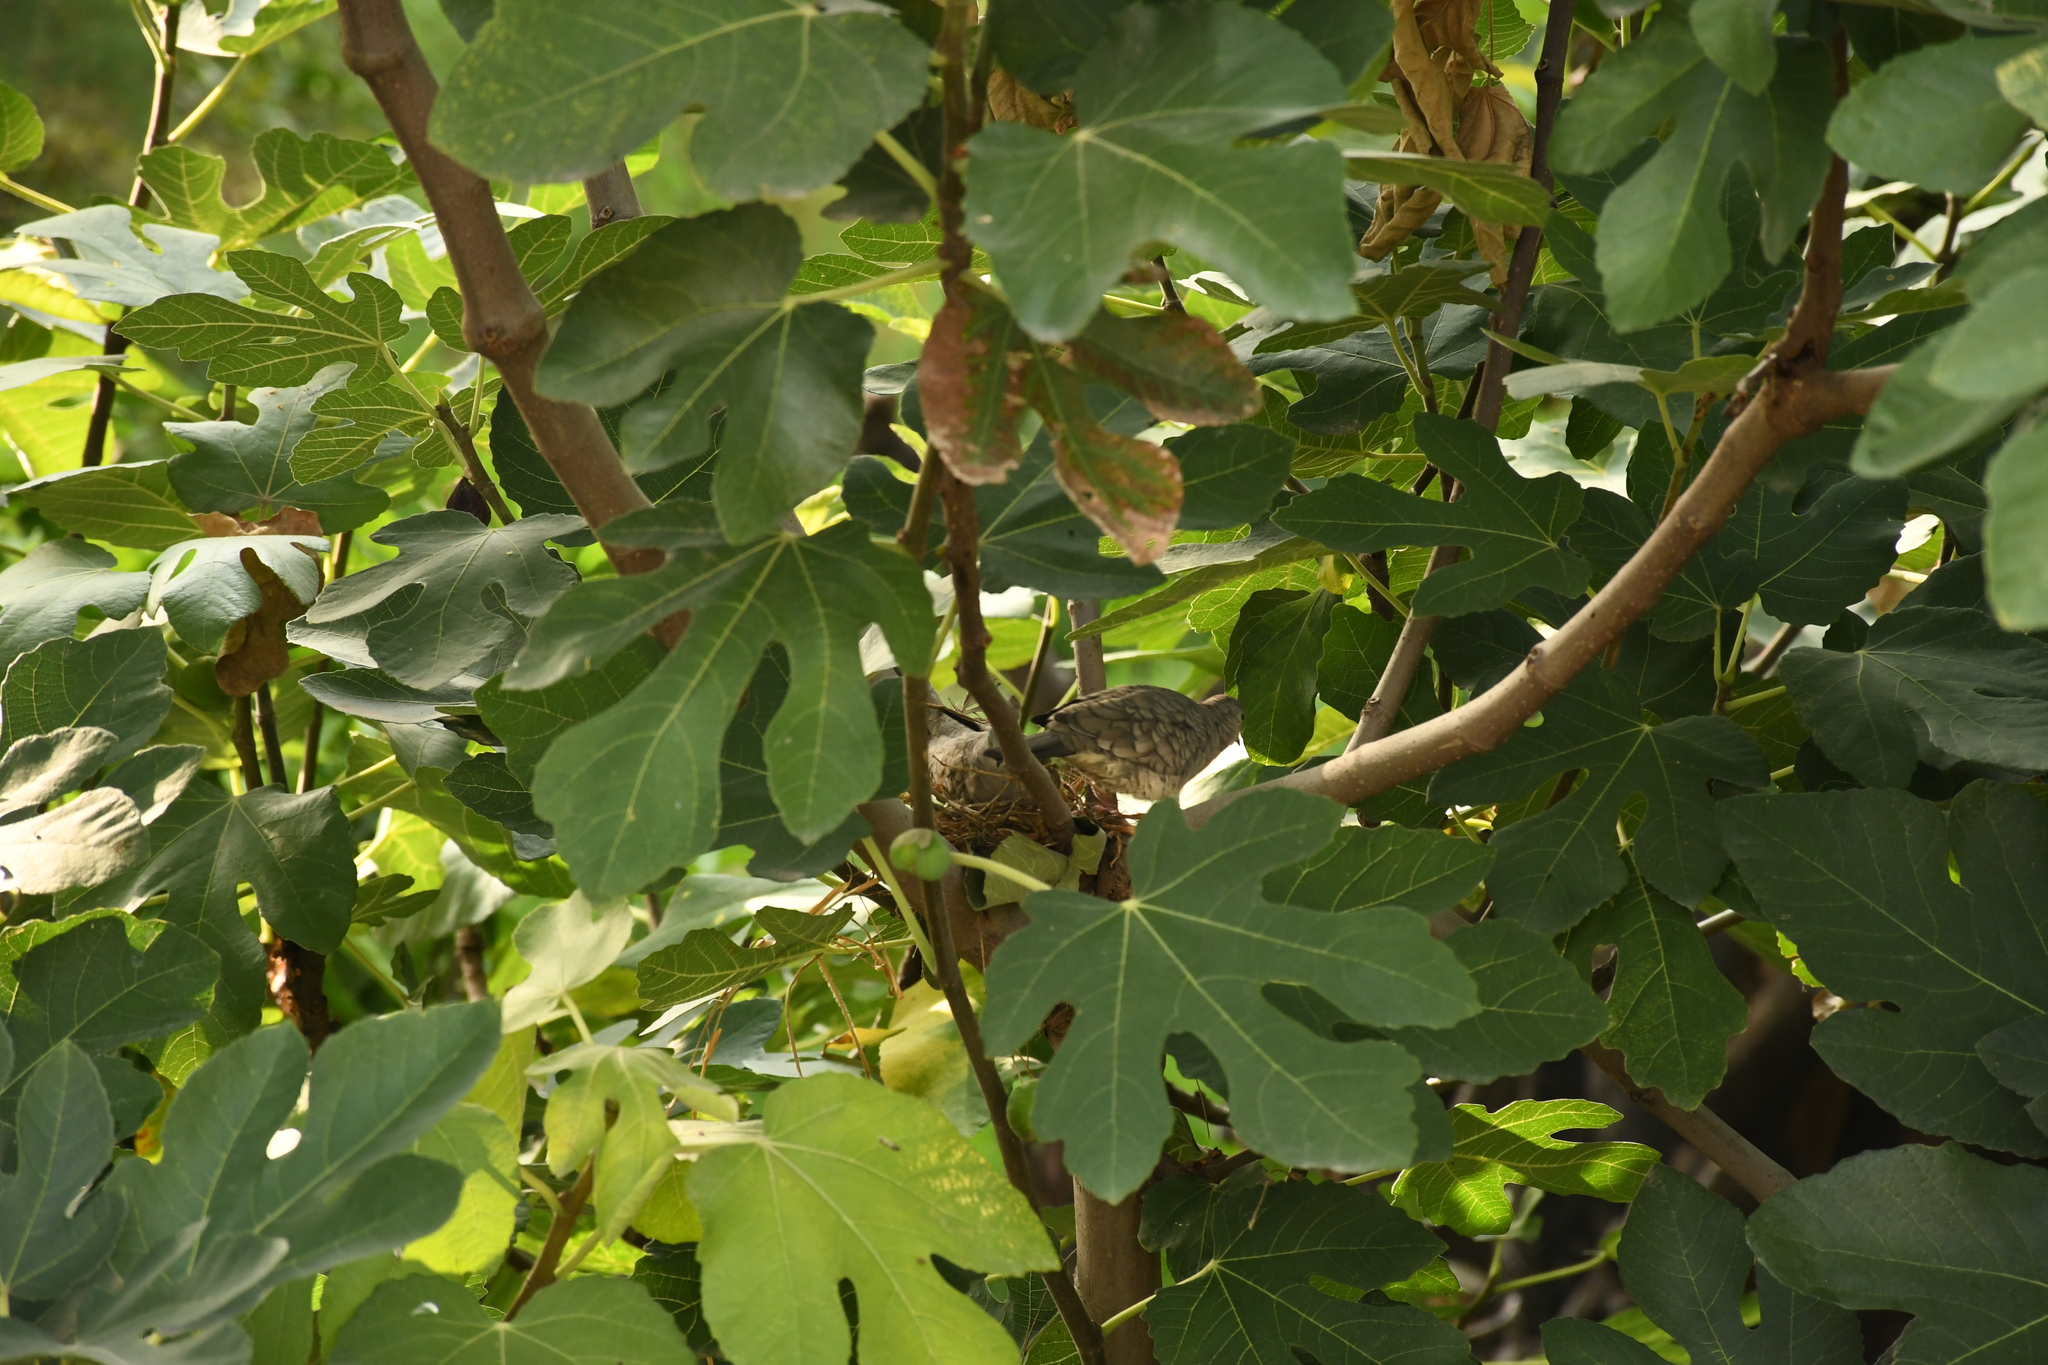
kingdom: Animalia
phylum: Chordata
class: Aves
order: Columbiformes
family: Columbidae
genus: Columbina
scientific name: Columbina inca
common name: Inca dove
